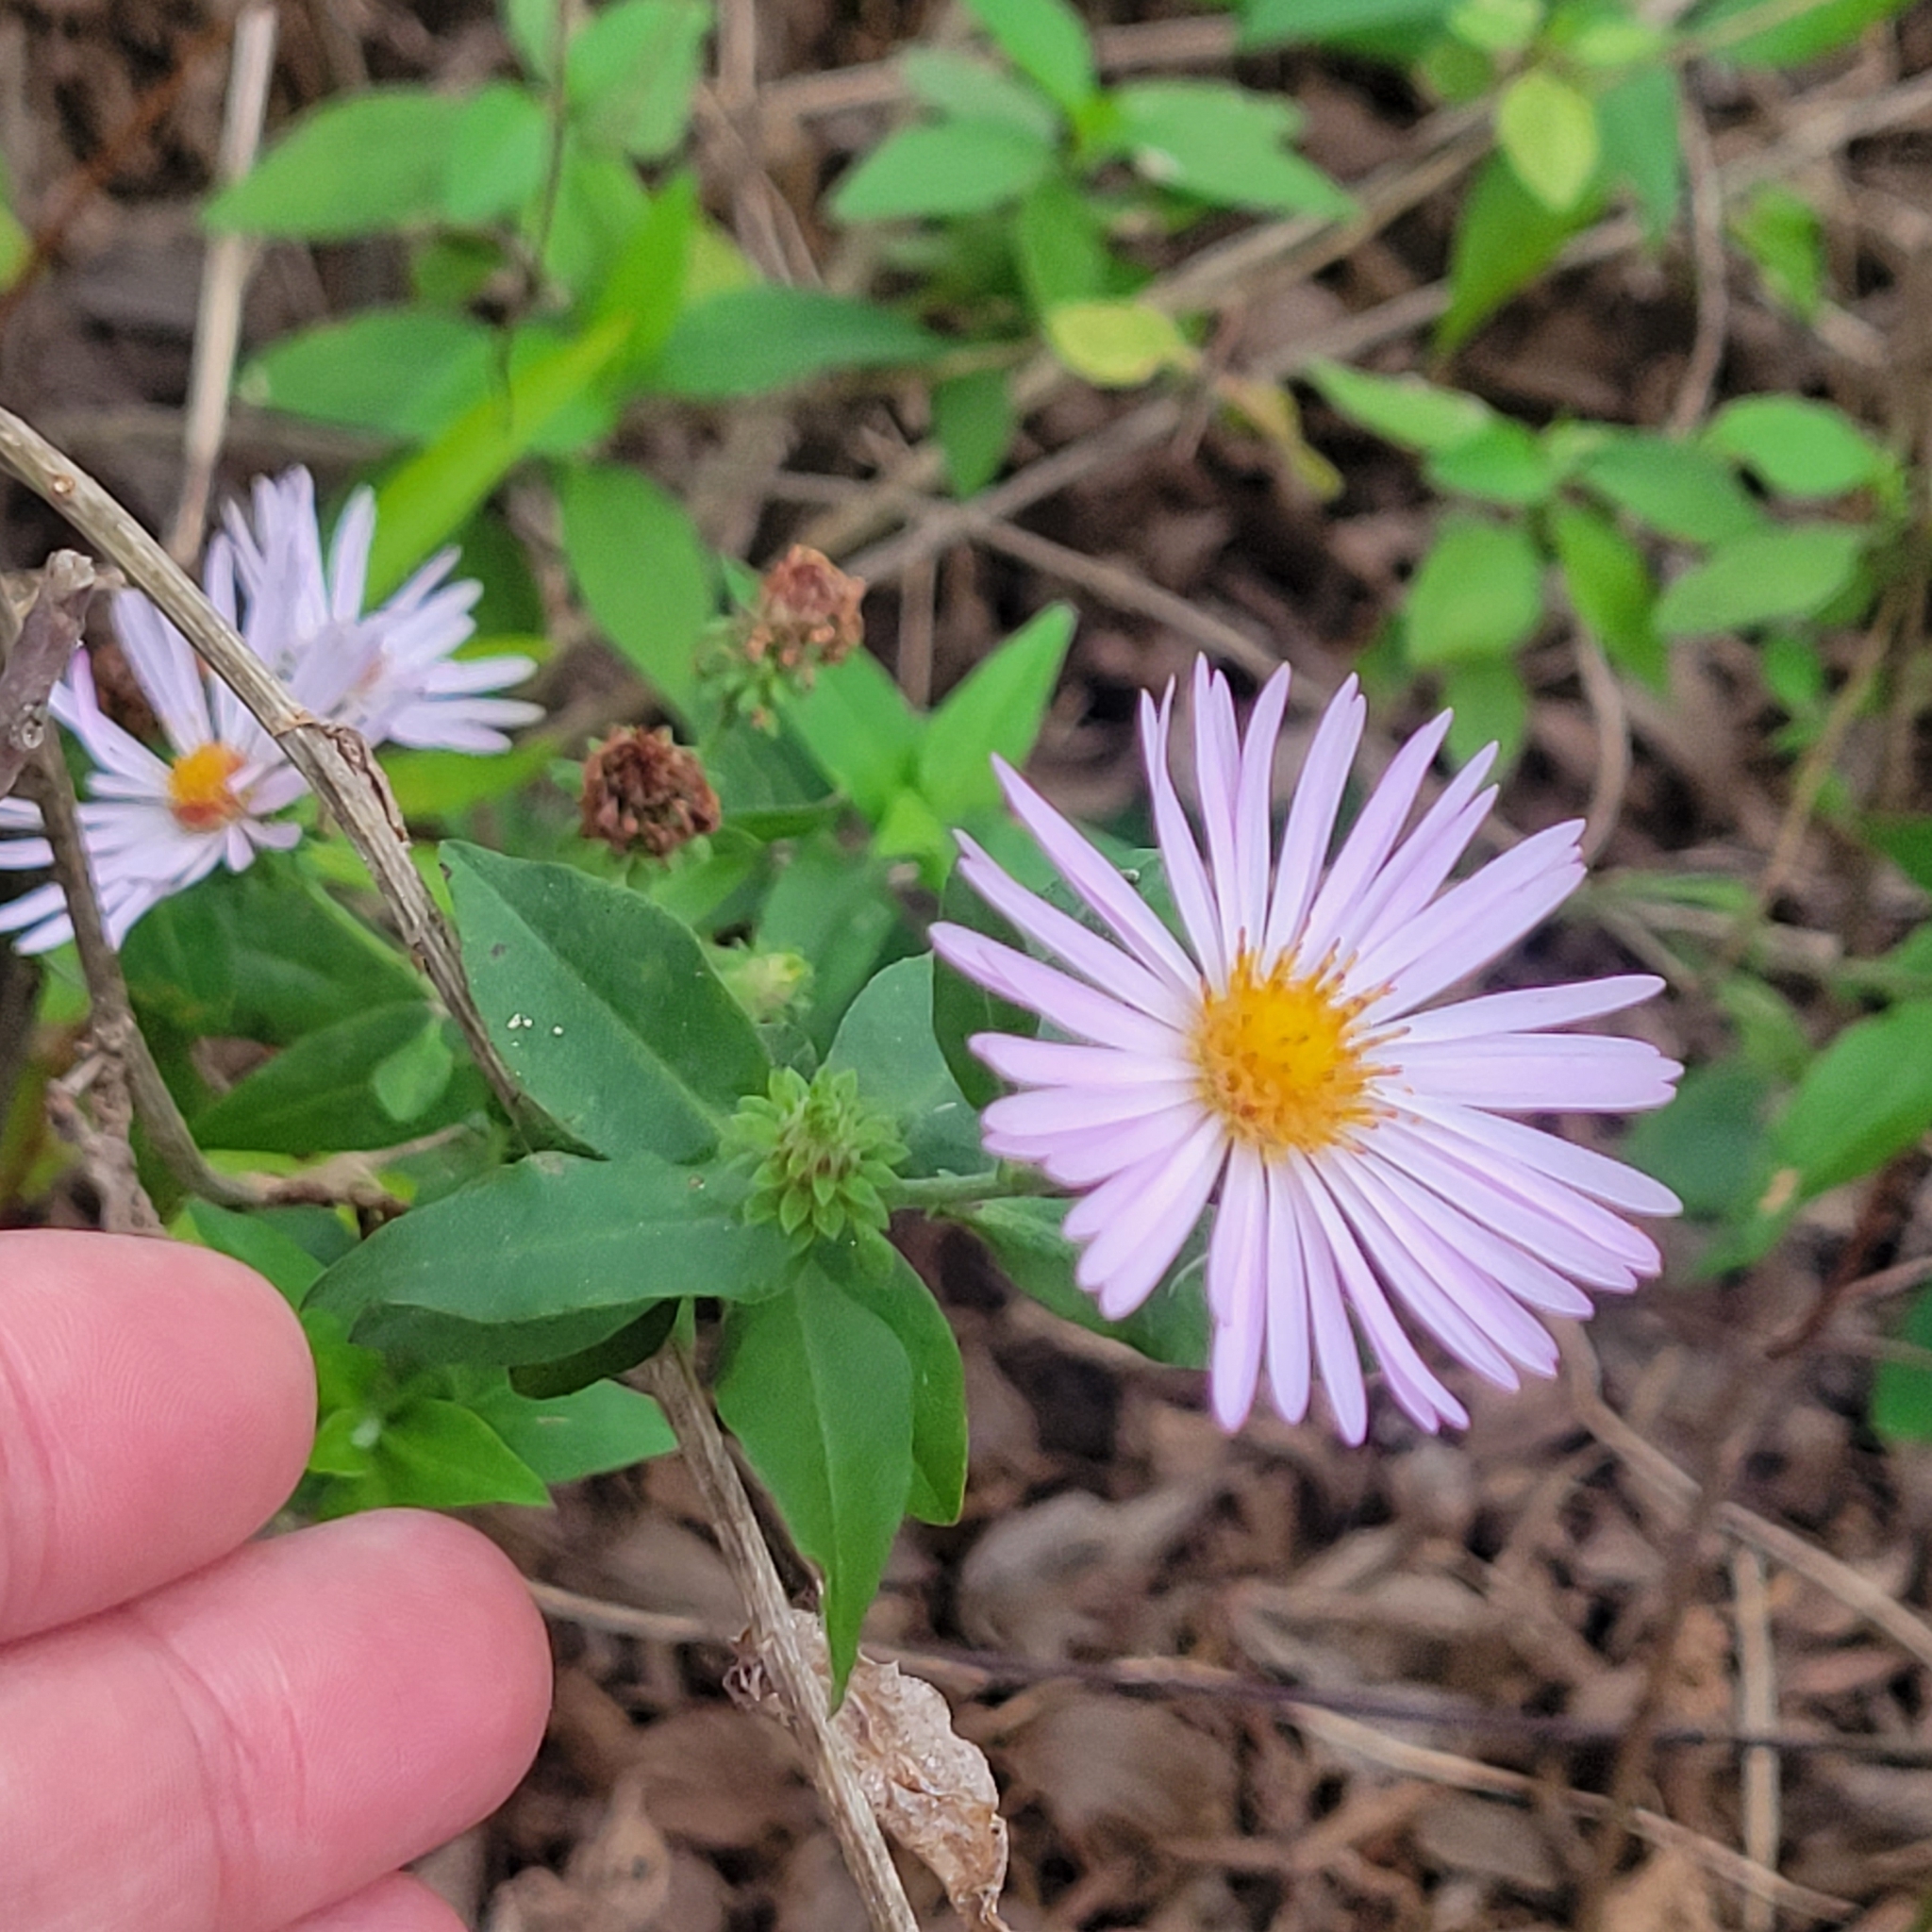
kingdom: Plantae
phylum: Tracheophyta
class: Magnoliopsida
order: Asterales
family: Asteraceae
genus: Ampelaster
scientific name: Ampelaster carolinianus
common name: Climbing aster
